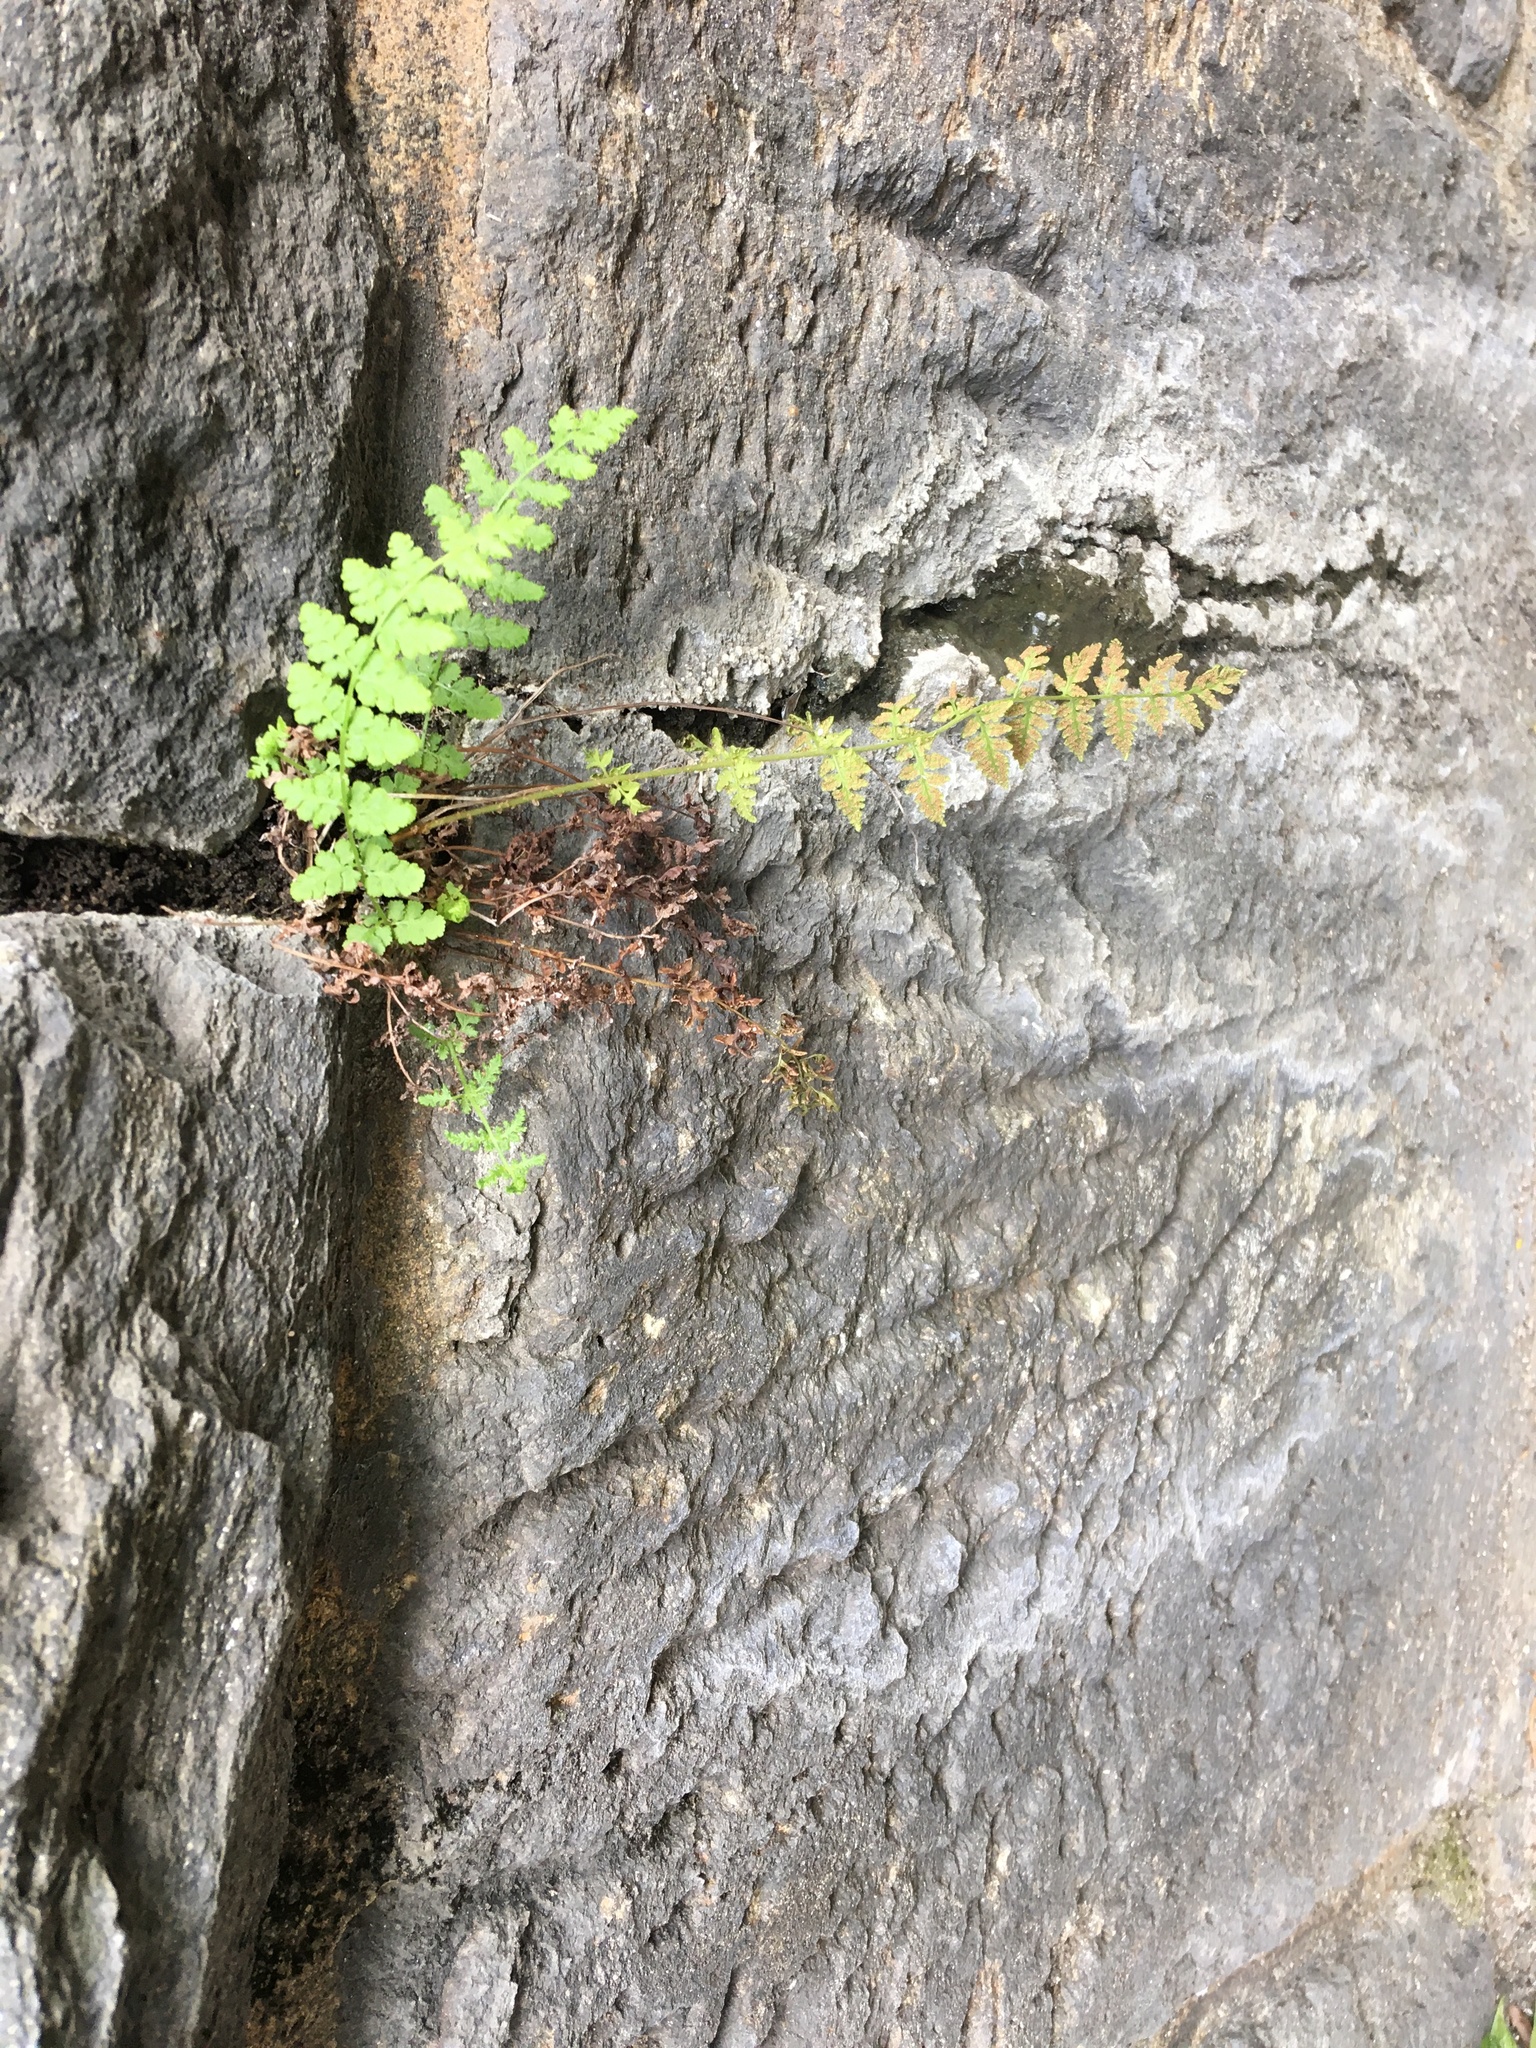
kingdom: Plantae
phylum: Tracheophyta
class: Polypodiopsida
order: Polypodiales
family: Woodsiaceae
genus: Physematium
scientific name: Physematium obtusum
